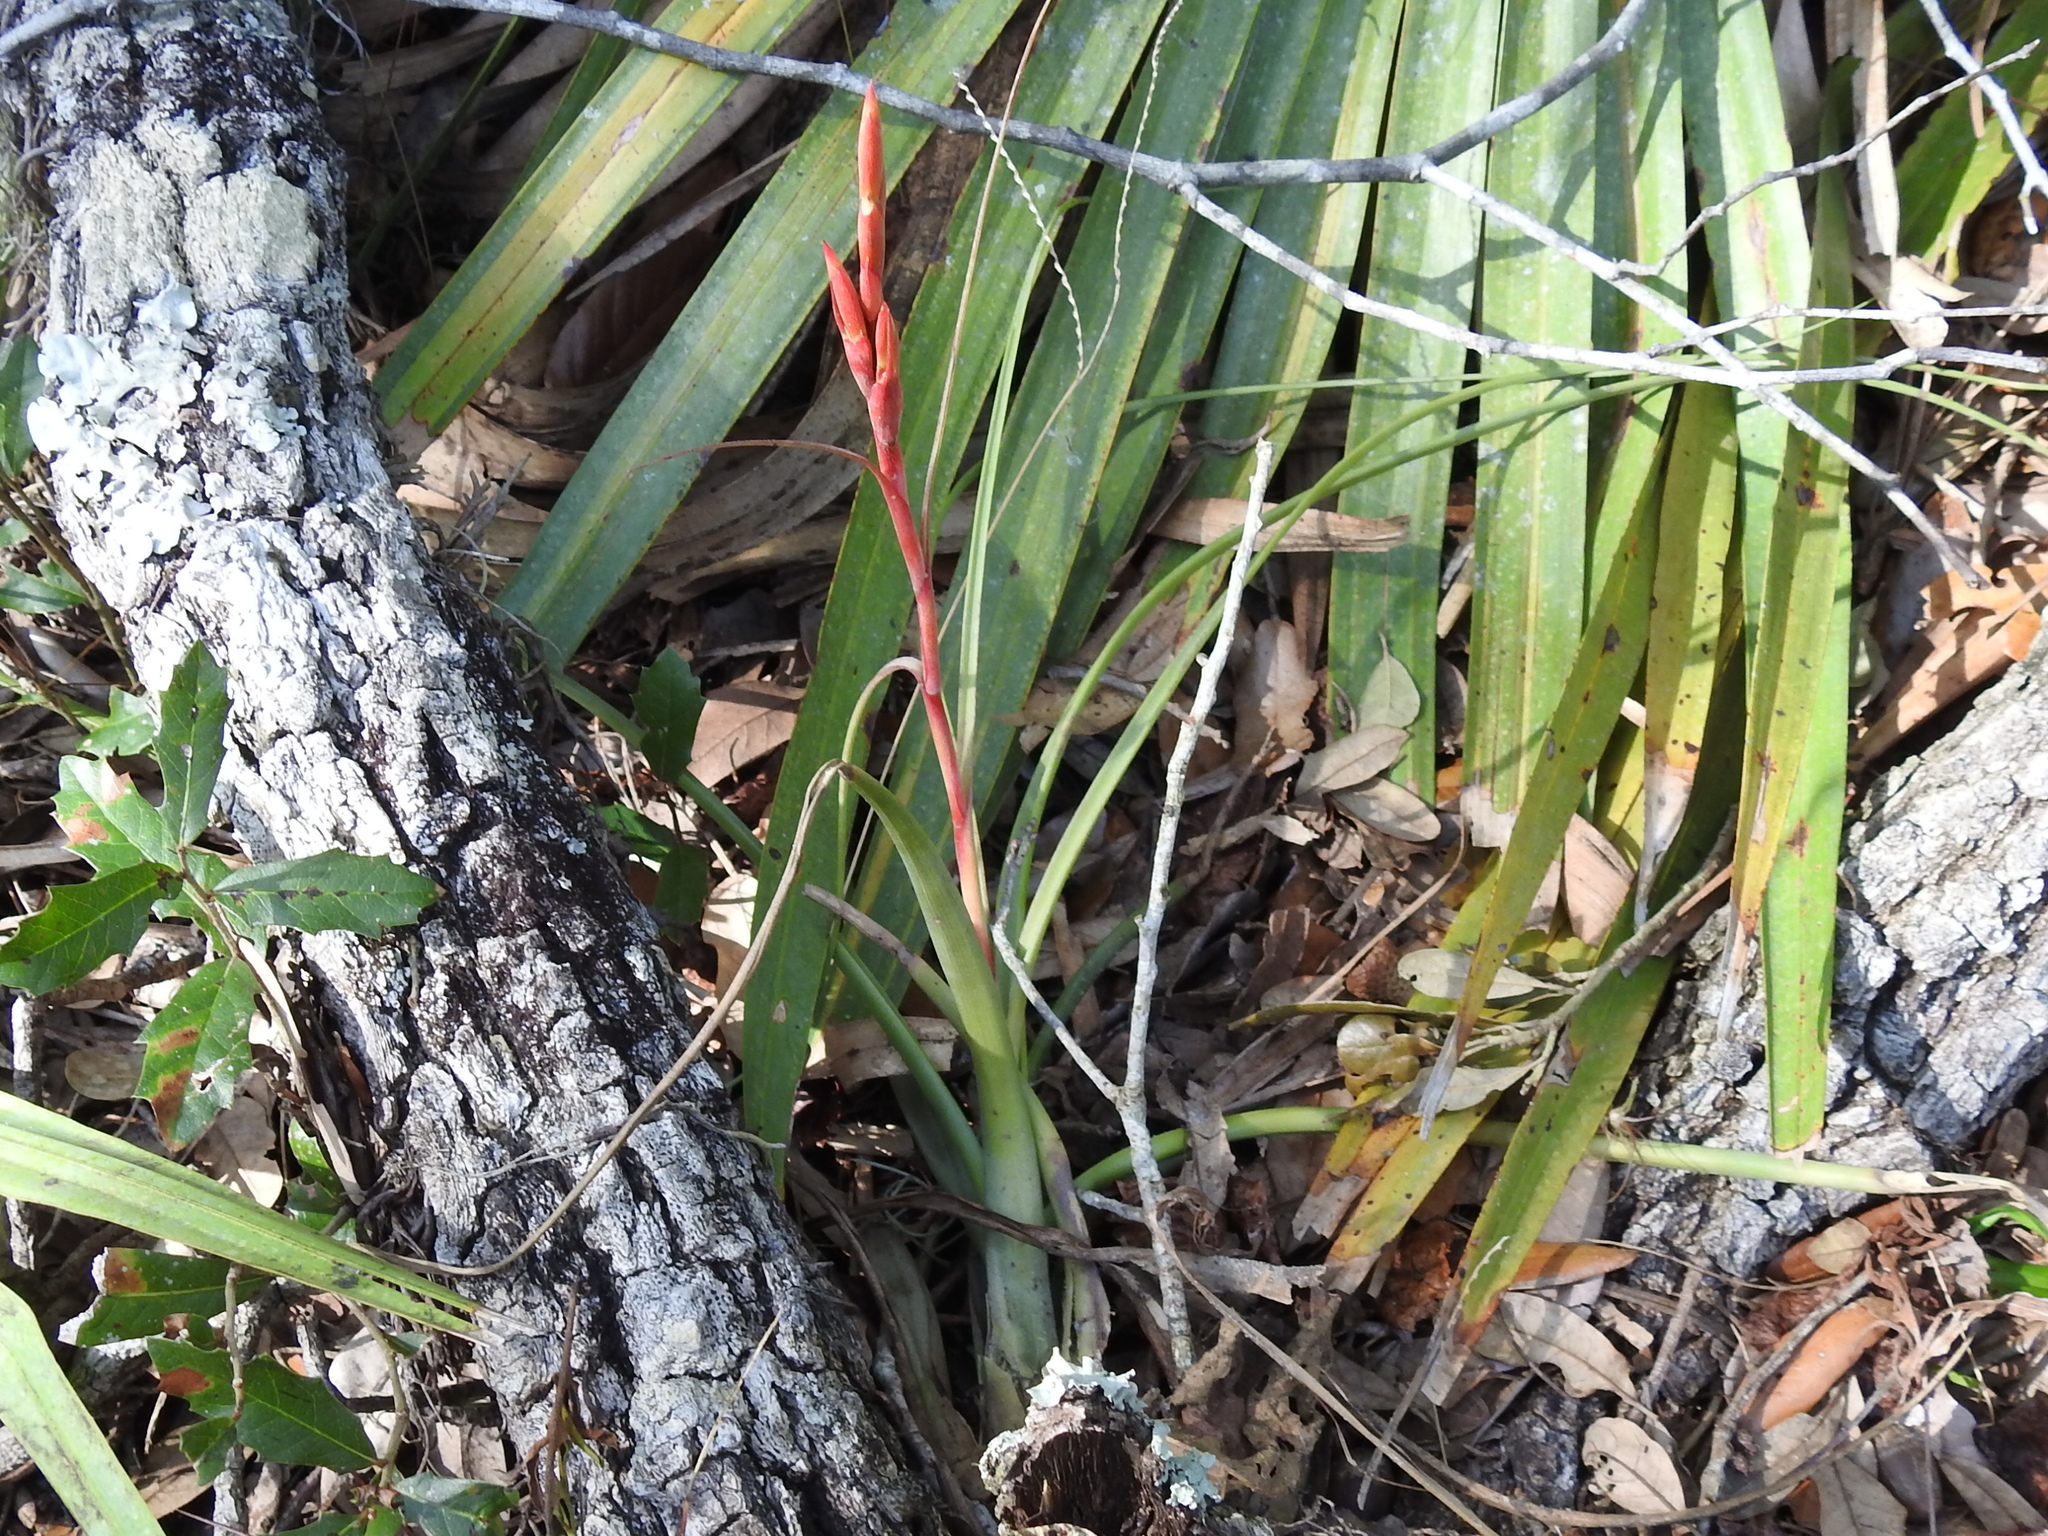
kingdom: Plantae
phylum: Tracheophyta
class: Liliopsida
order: Poales
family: Bromeliaceae
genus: Tillandsia
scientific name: Tillandsia balbisiana
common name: Northern needleleaf
